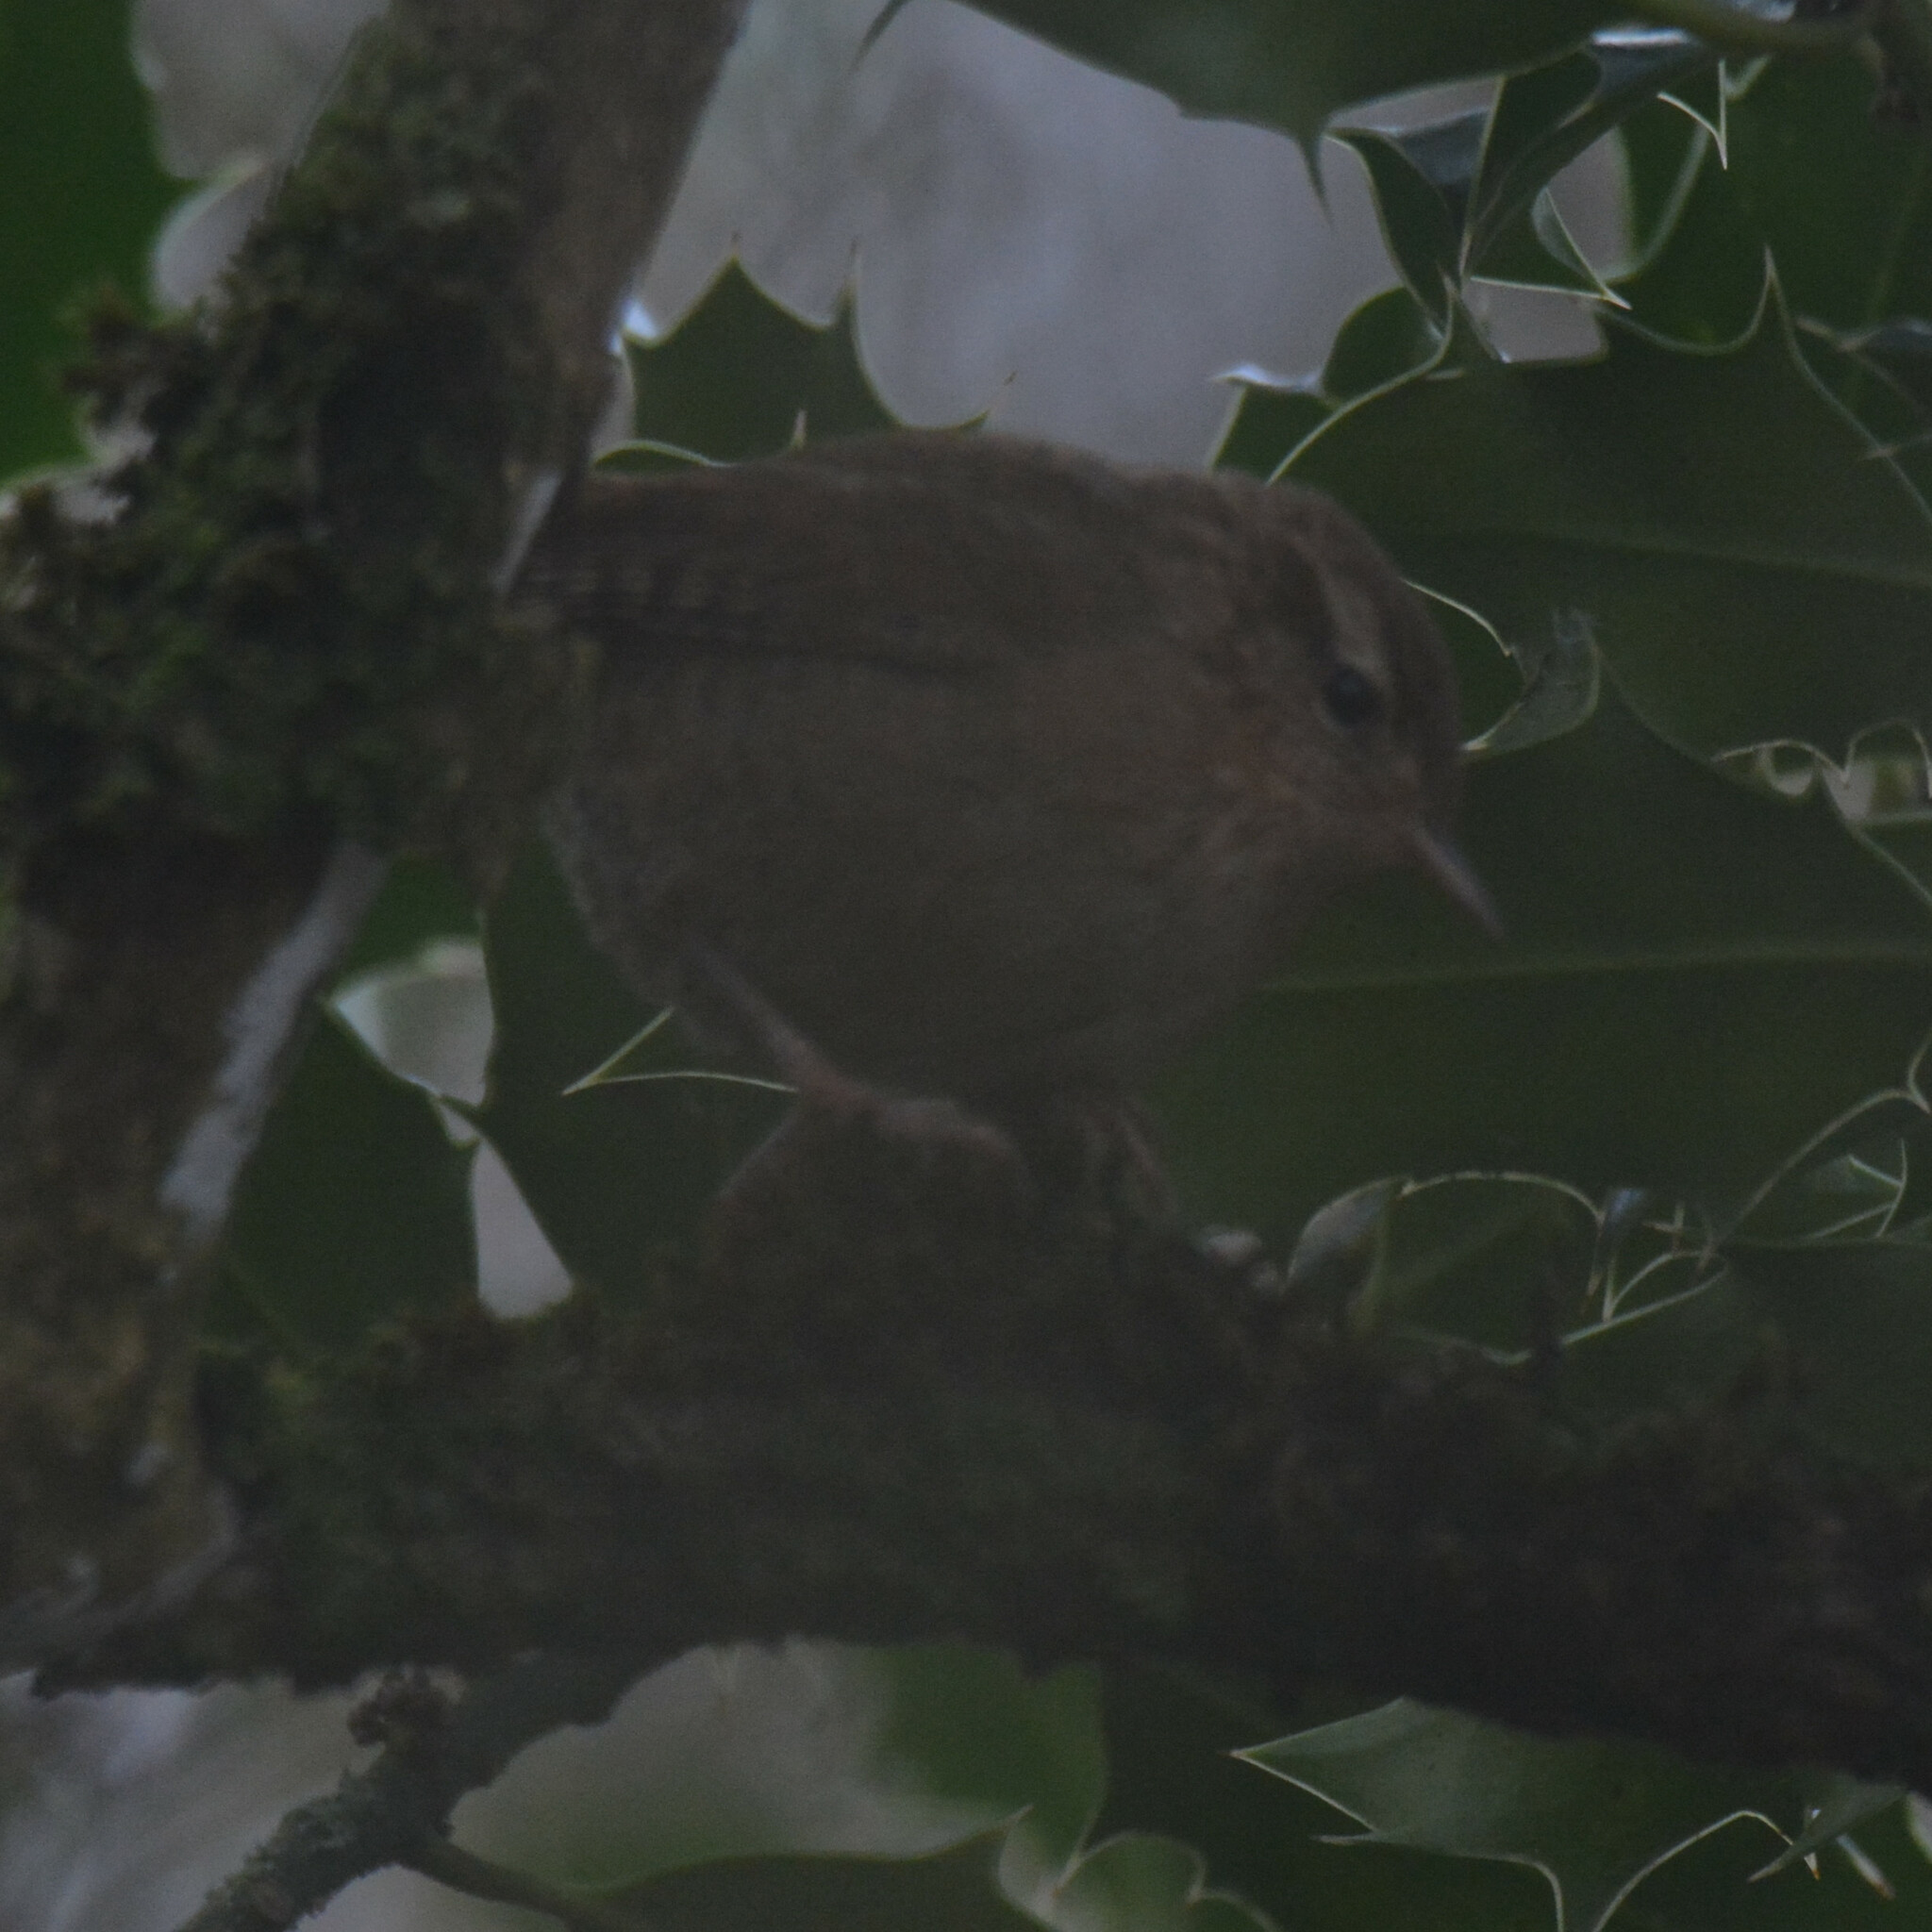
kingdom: Animalia
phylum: Chordata
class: Aves
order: Passeriformes
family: Troglodytidae
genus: Troglodytes
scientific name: Troglodytes troglodytes
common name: Eurasian wren
